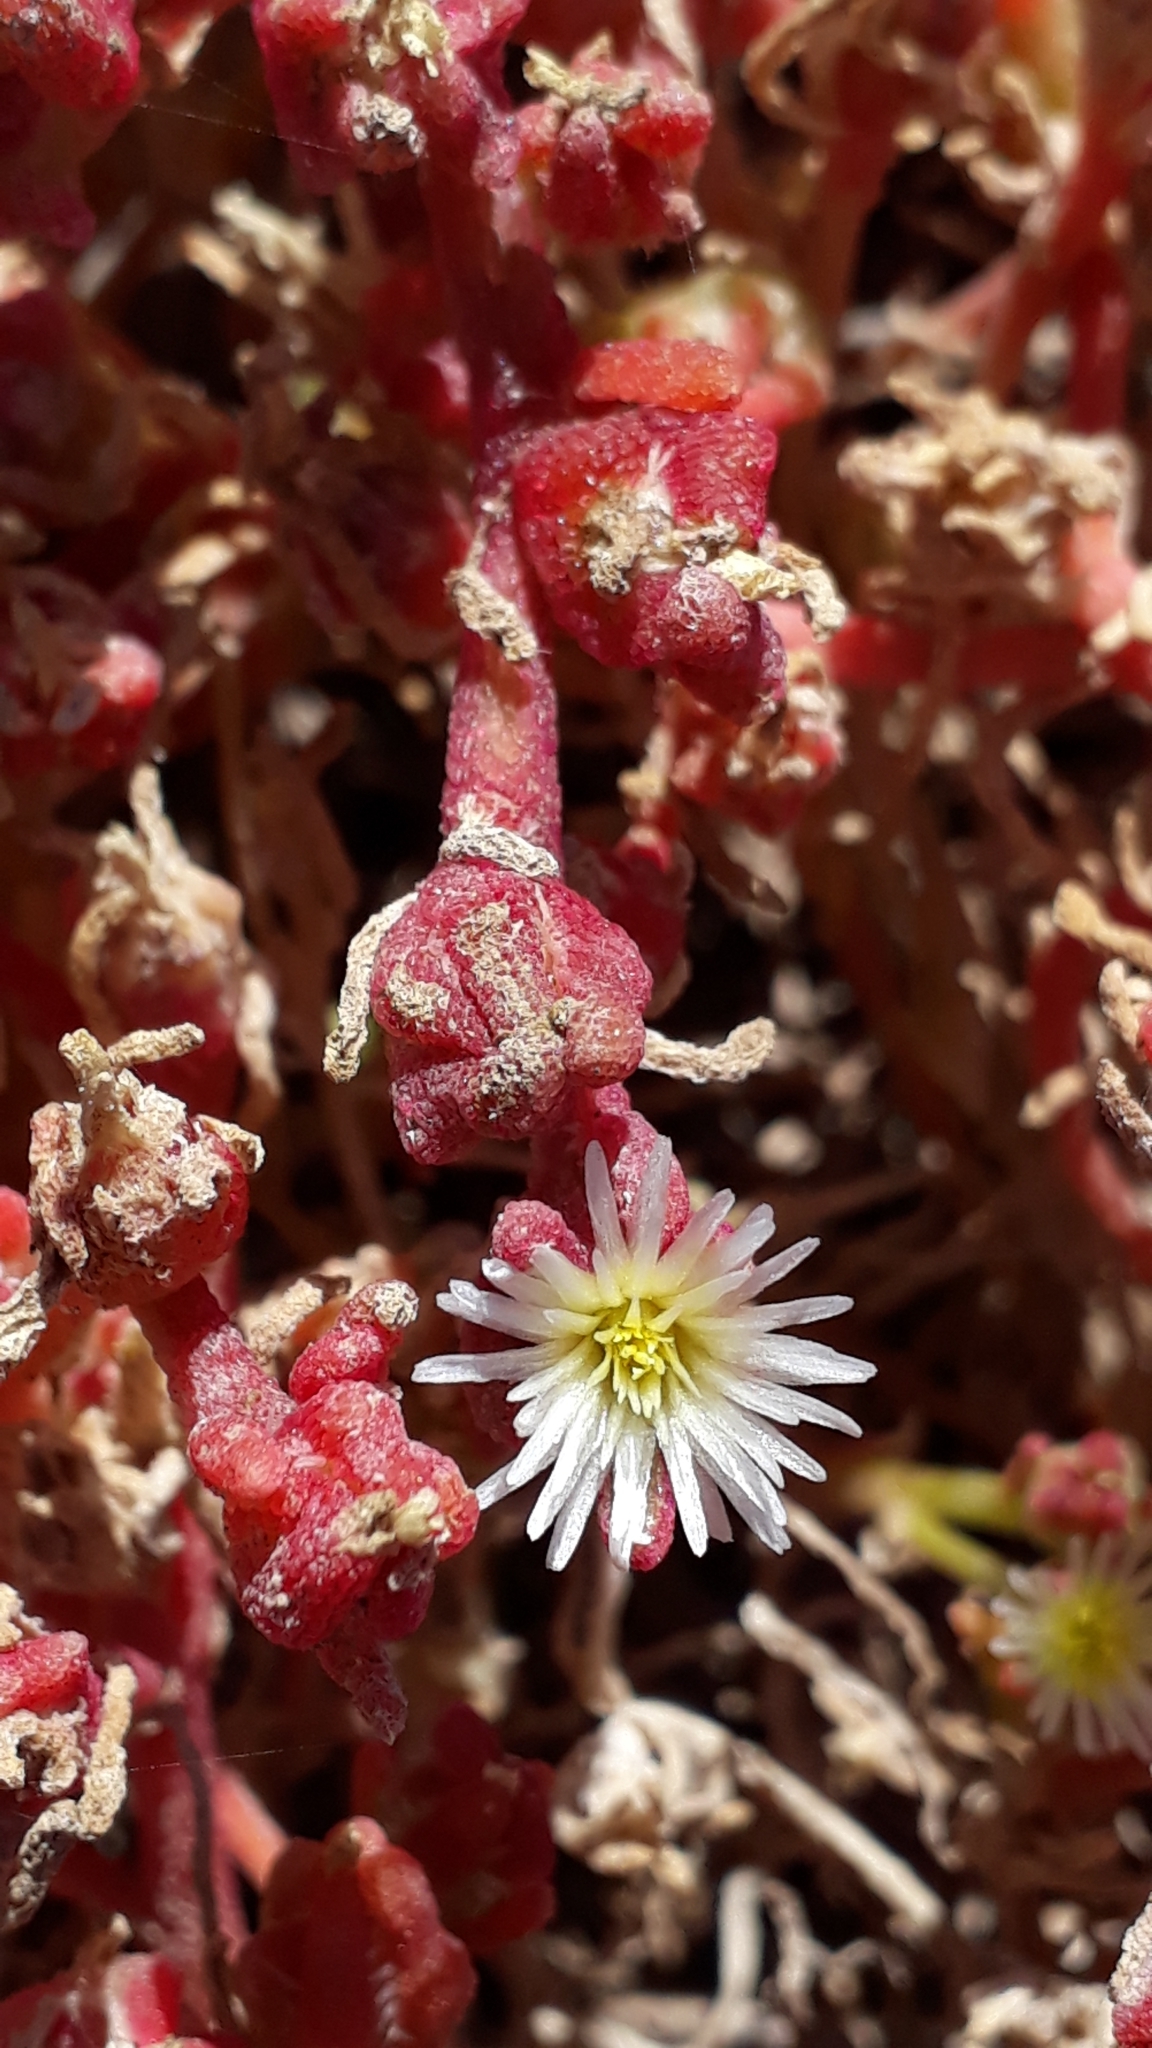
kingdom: Plantae
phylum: Tracheophyta
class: Magnoliopsida
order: Caryophyllales
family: Aizoaceae
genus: Mesembryanthemum
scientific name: Mesembryanthemum nodiflorum
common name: Slenderleaf iceplant
